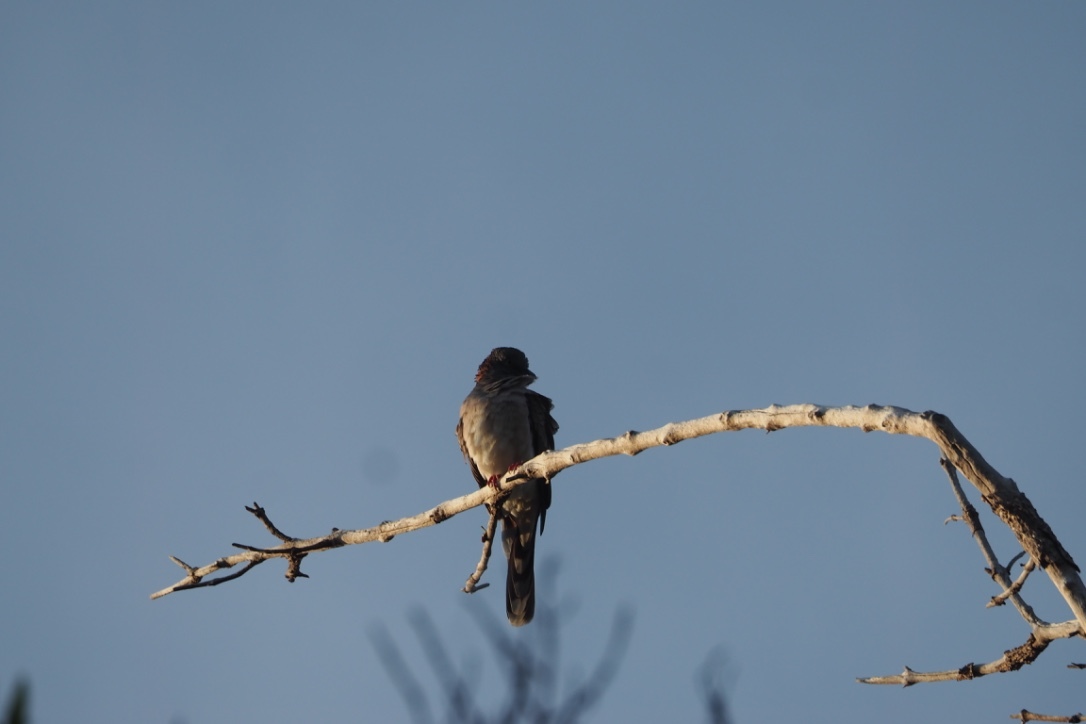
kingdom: Animalia
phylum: Chordata
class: Aves
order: Columbiformes
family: Columbidae
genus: Geopelia
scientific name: Geopelia humeralis
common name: Bar-shouldered dove
